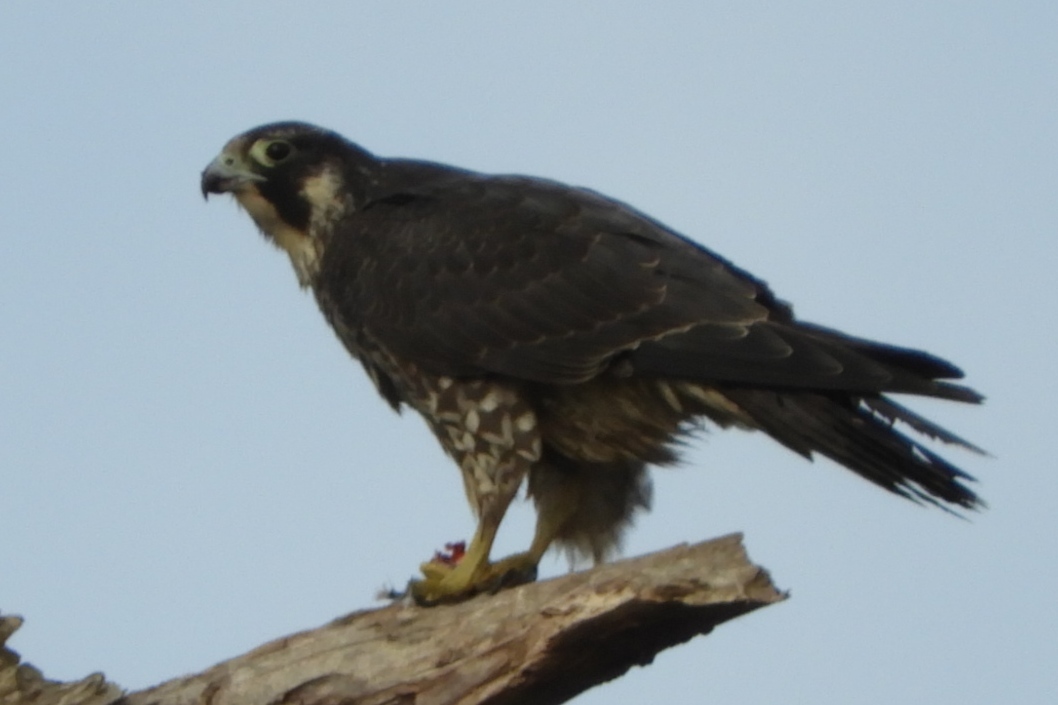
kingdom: Animalia
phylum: Chordata
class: Aves
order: Falconiformes
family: Falconidae
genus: Falco
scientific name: Falco peregrinus
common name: Peregrine falcon
